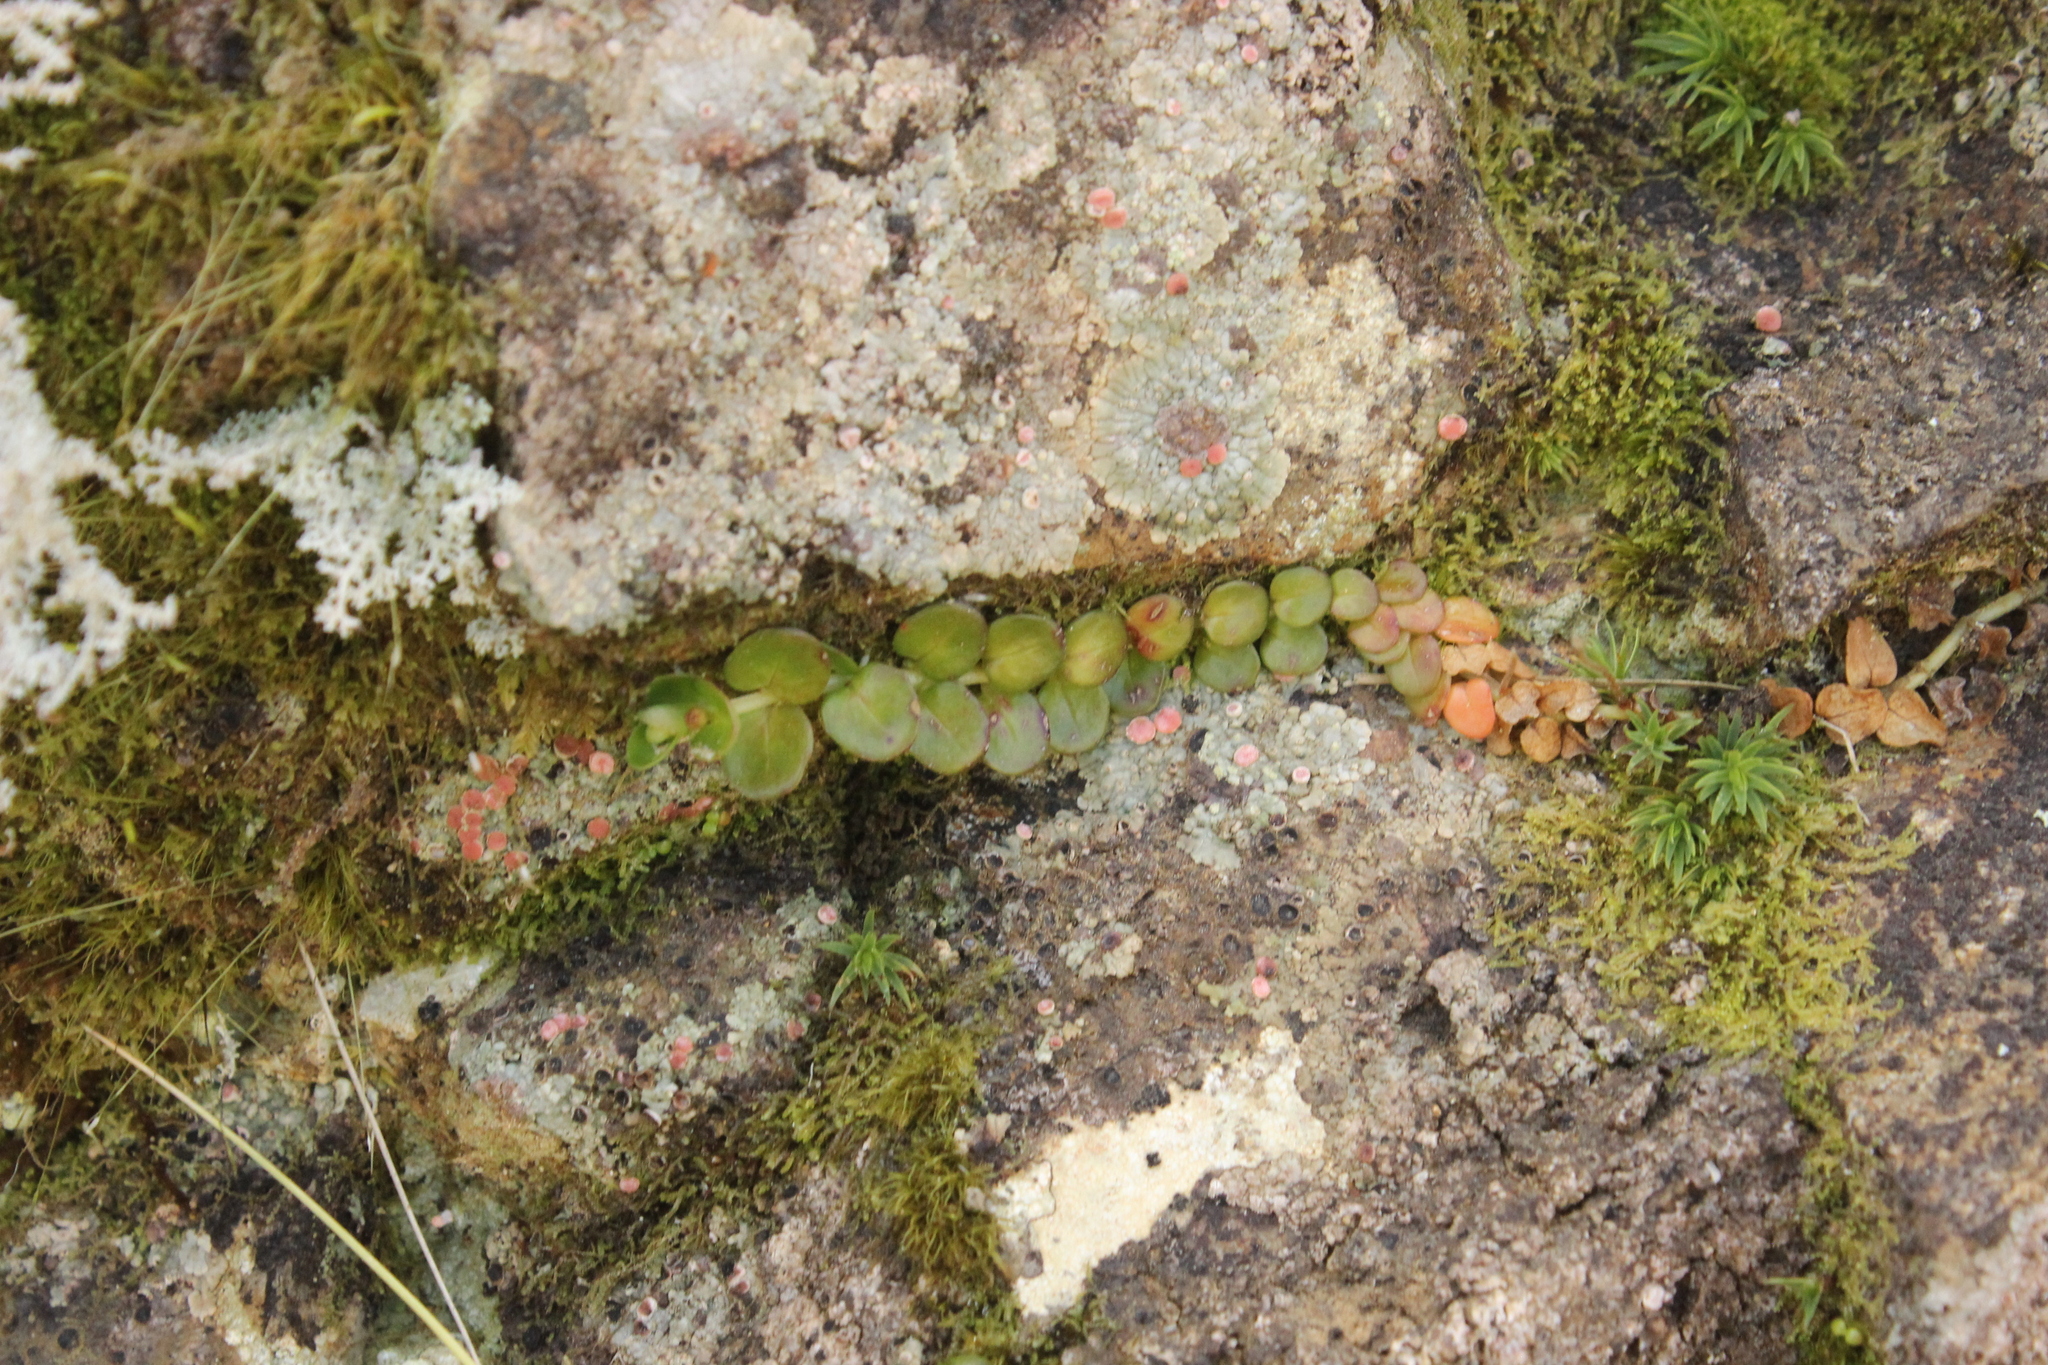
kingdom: Plantae
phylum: Tracheophyta
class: Magnoliopsida
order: Myrtales
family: Onagraceae
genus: Epilobium
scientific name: Epilobium brunnescens
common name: New zealand willowherb
